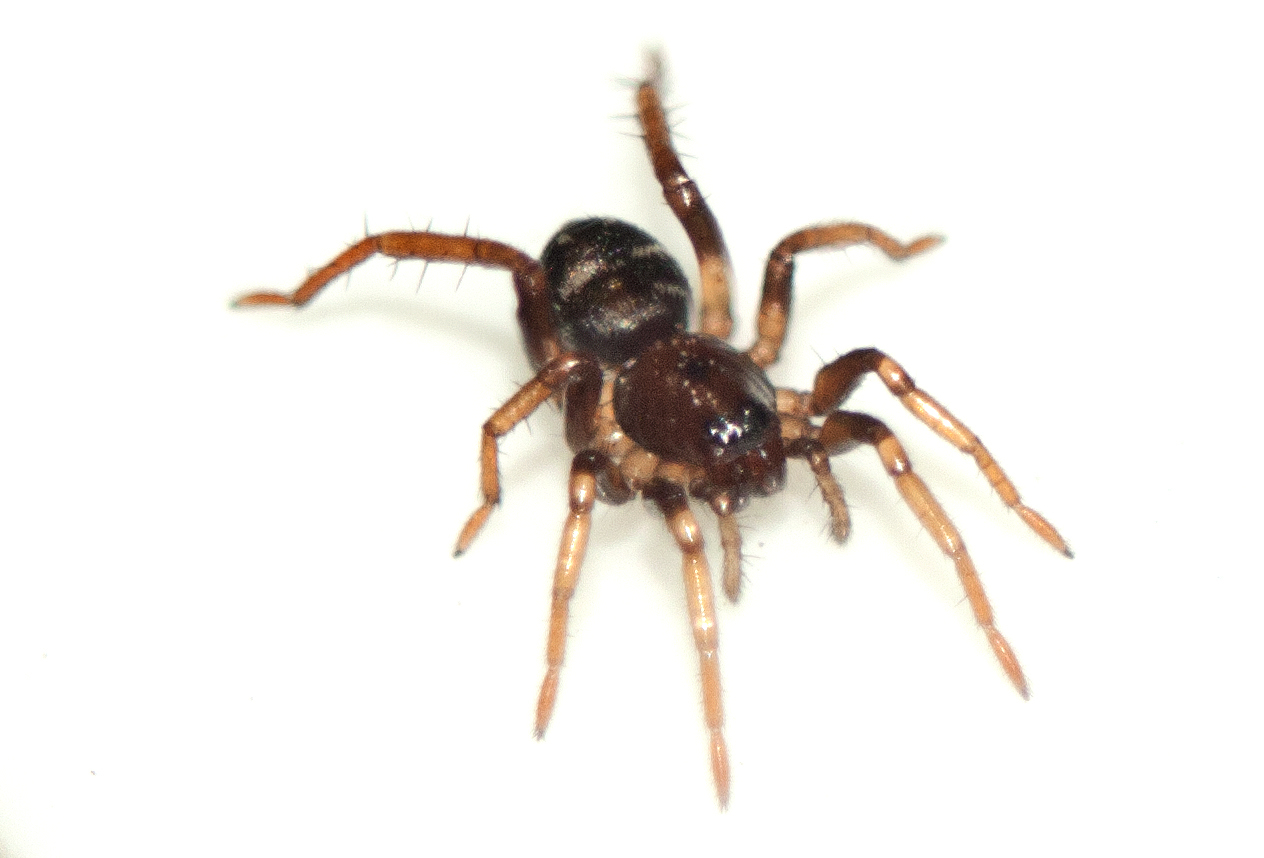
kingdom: Animalia
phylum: Arthropoda
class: Arachnida
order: Araneae
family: Corinnidae
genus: Disnyssus
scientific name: Disnyssus judidenchae
